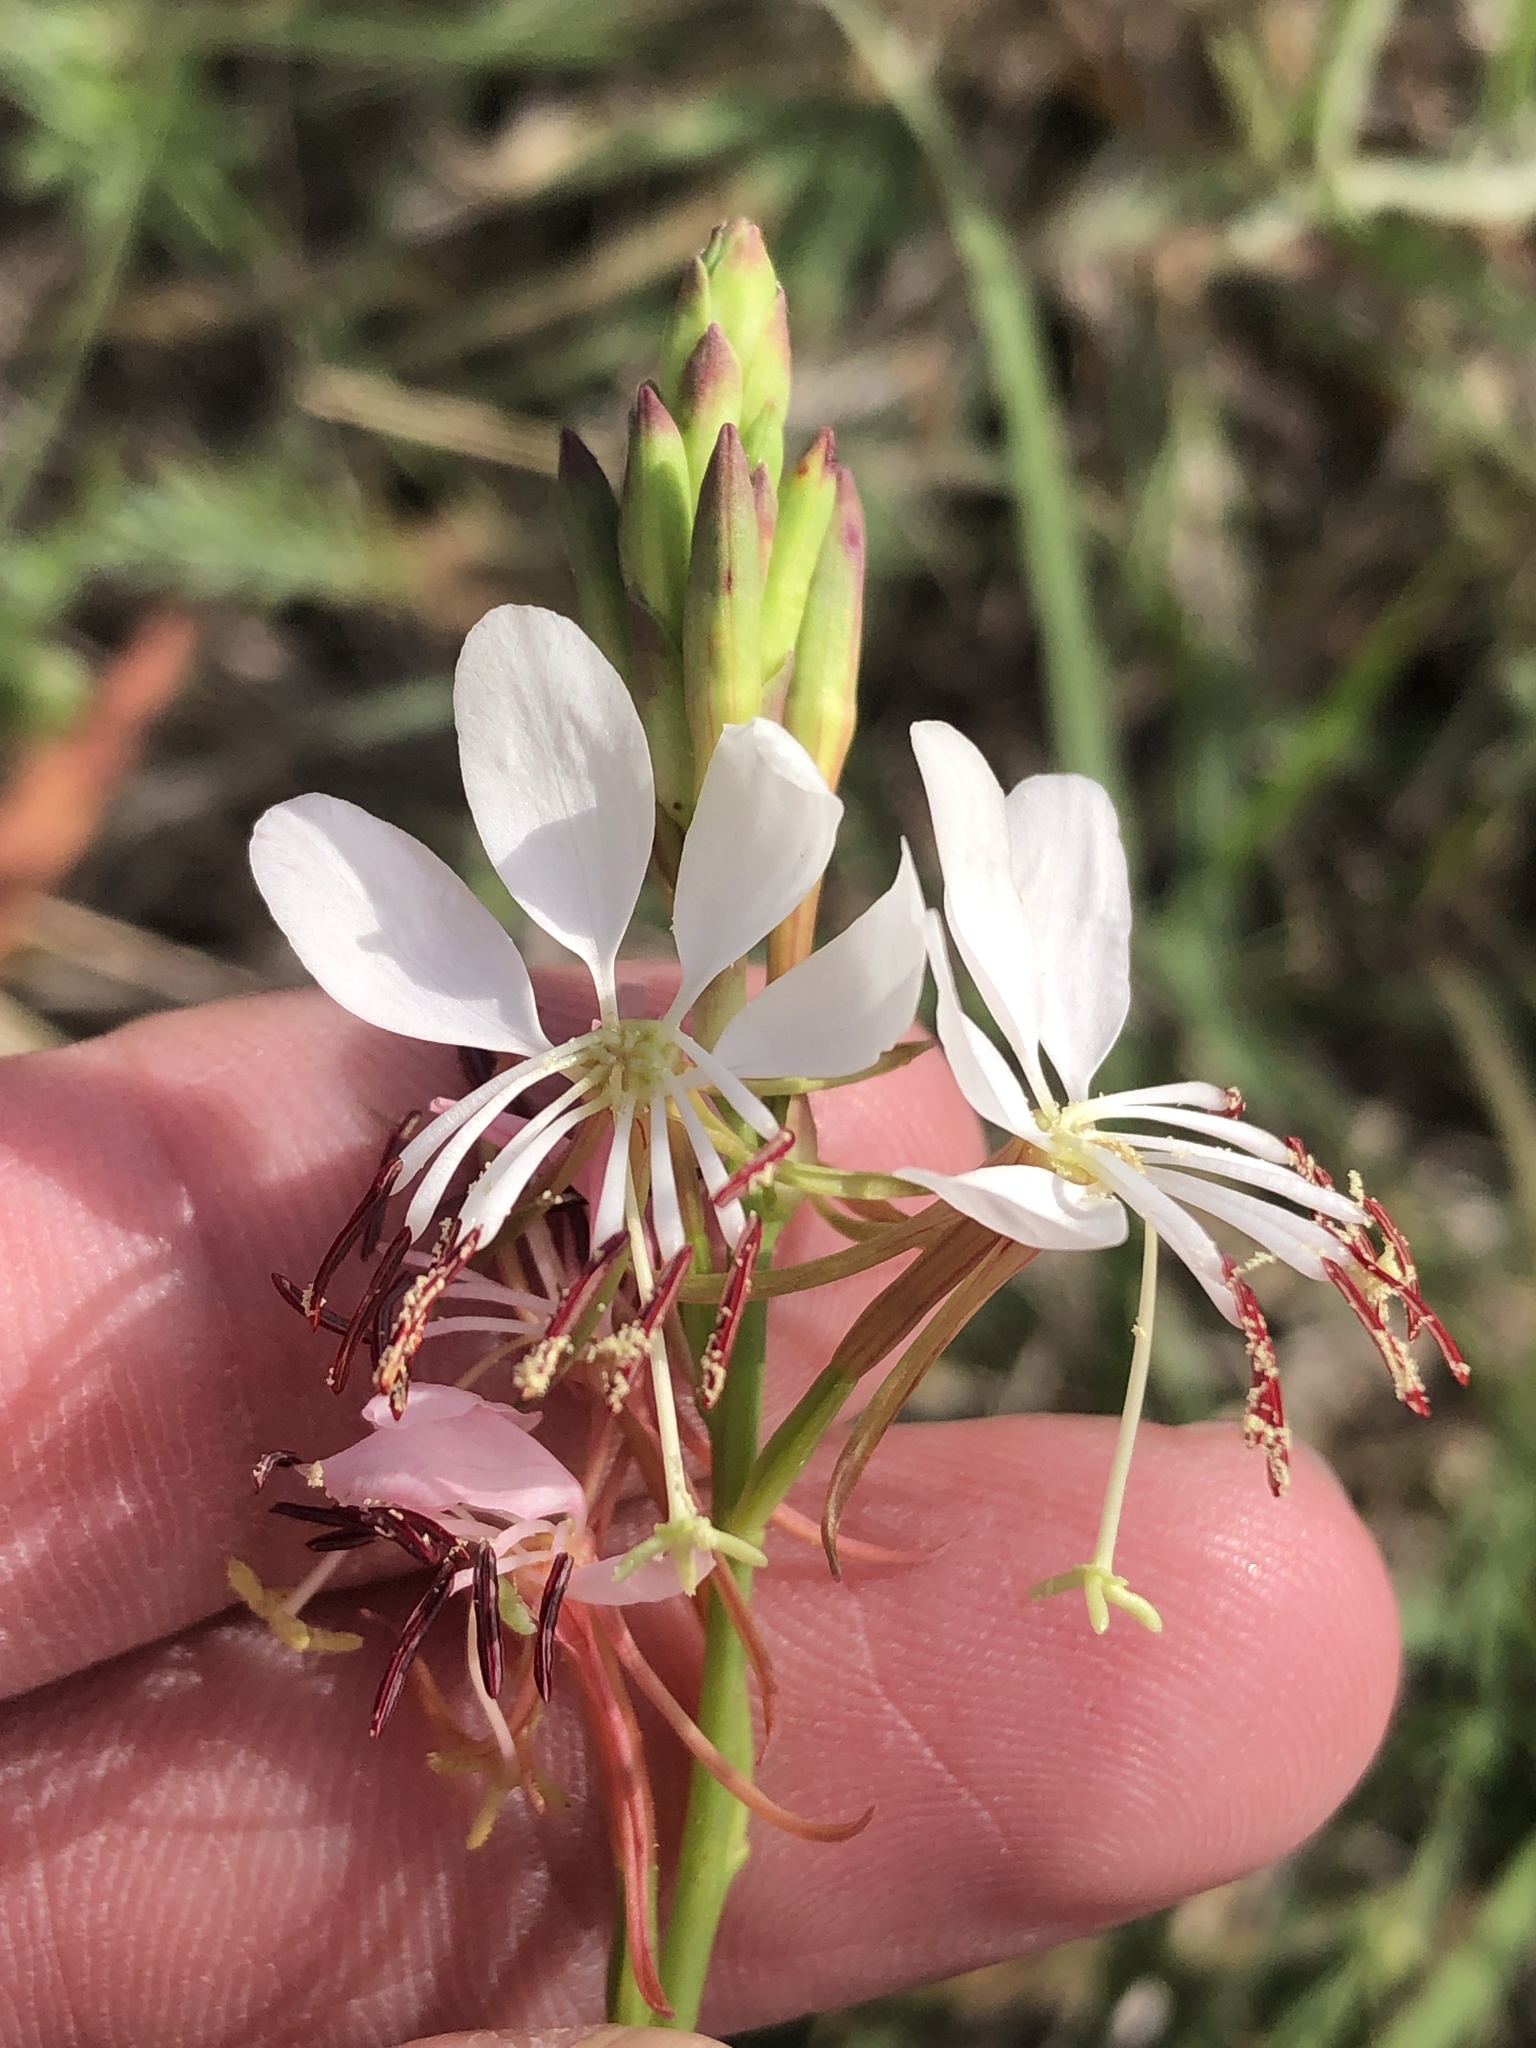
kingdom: Plantae
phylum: Tracheophyta
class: Magnoliopsida
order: Myrtales
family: Onagraceae
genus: Oenothera
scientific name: Oenothera suffulta
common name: Kisses
